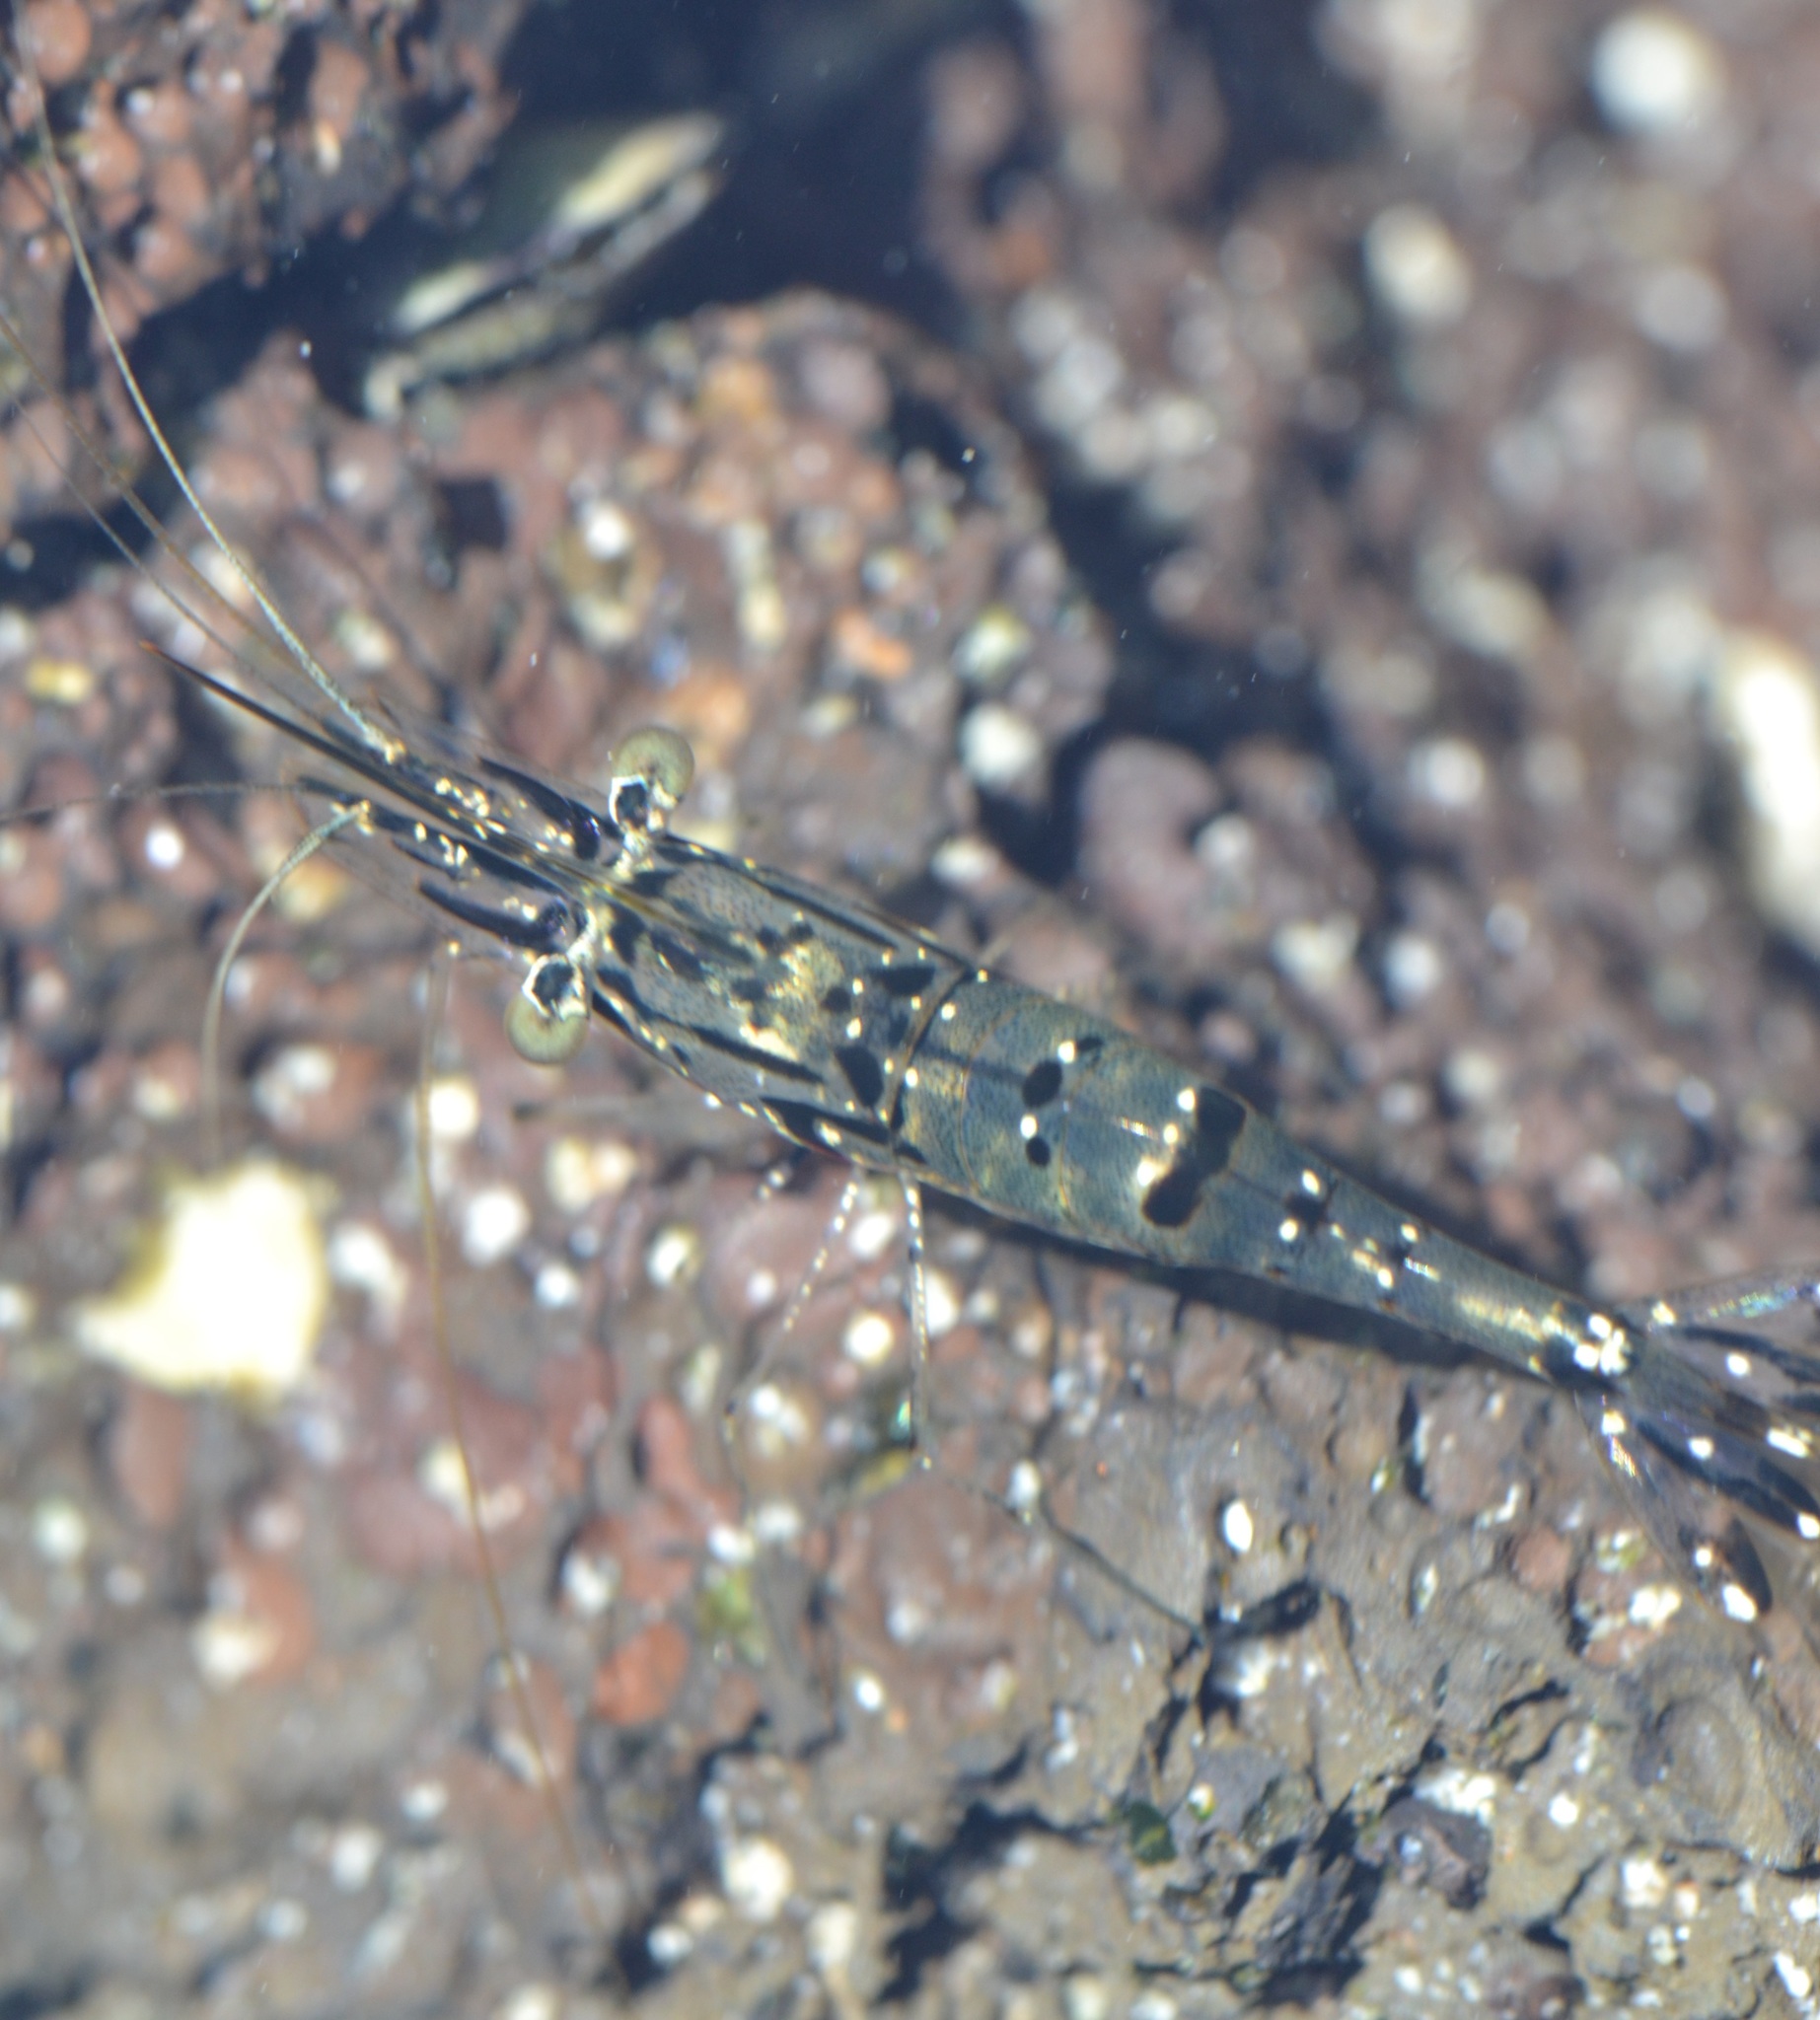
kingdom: Animalia
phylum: Arthropoda
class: Malacostraca
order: Decapoda
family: Palaemonidae
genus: Palaemon
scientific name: Palaemon debilis
